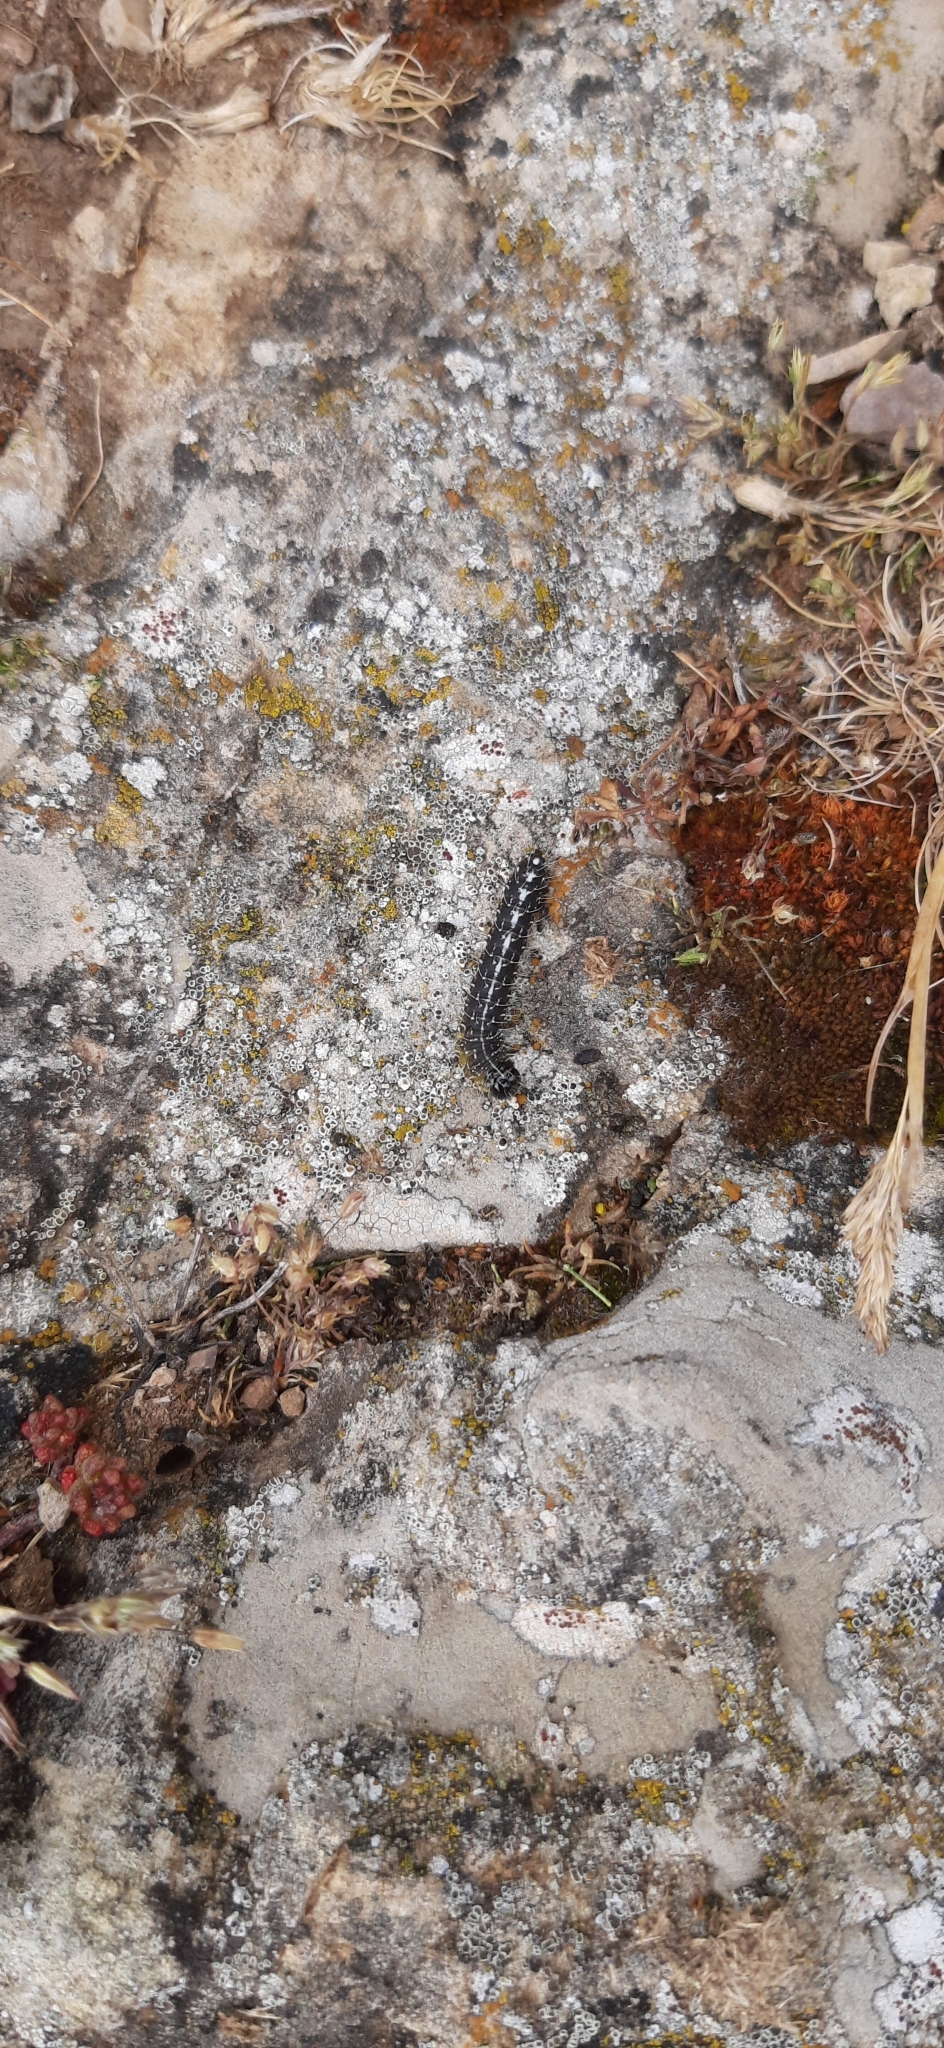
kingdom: Animalia
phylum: Arthropoda
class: Insecta
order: Lepidoptera
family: Noctuidae
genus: Nyctobrya
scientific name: Nyctobrya muralis
